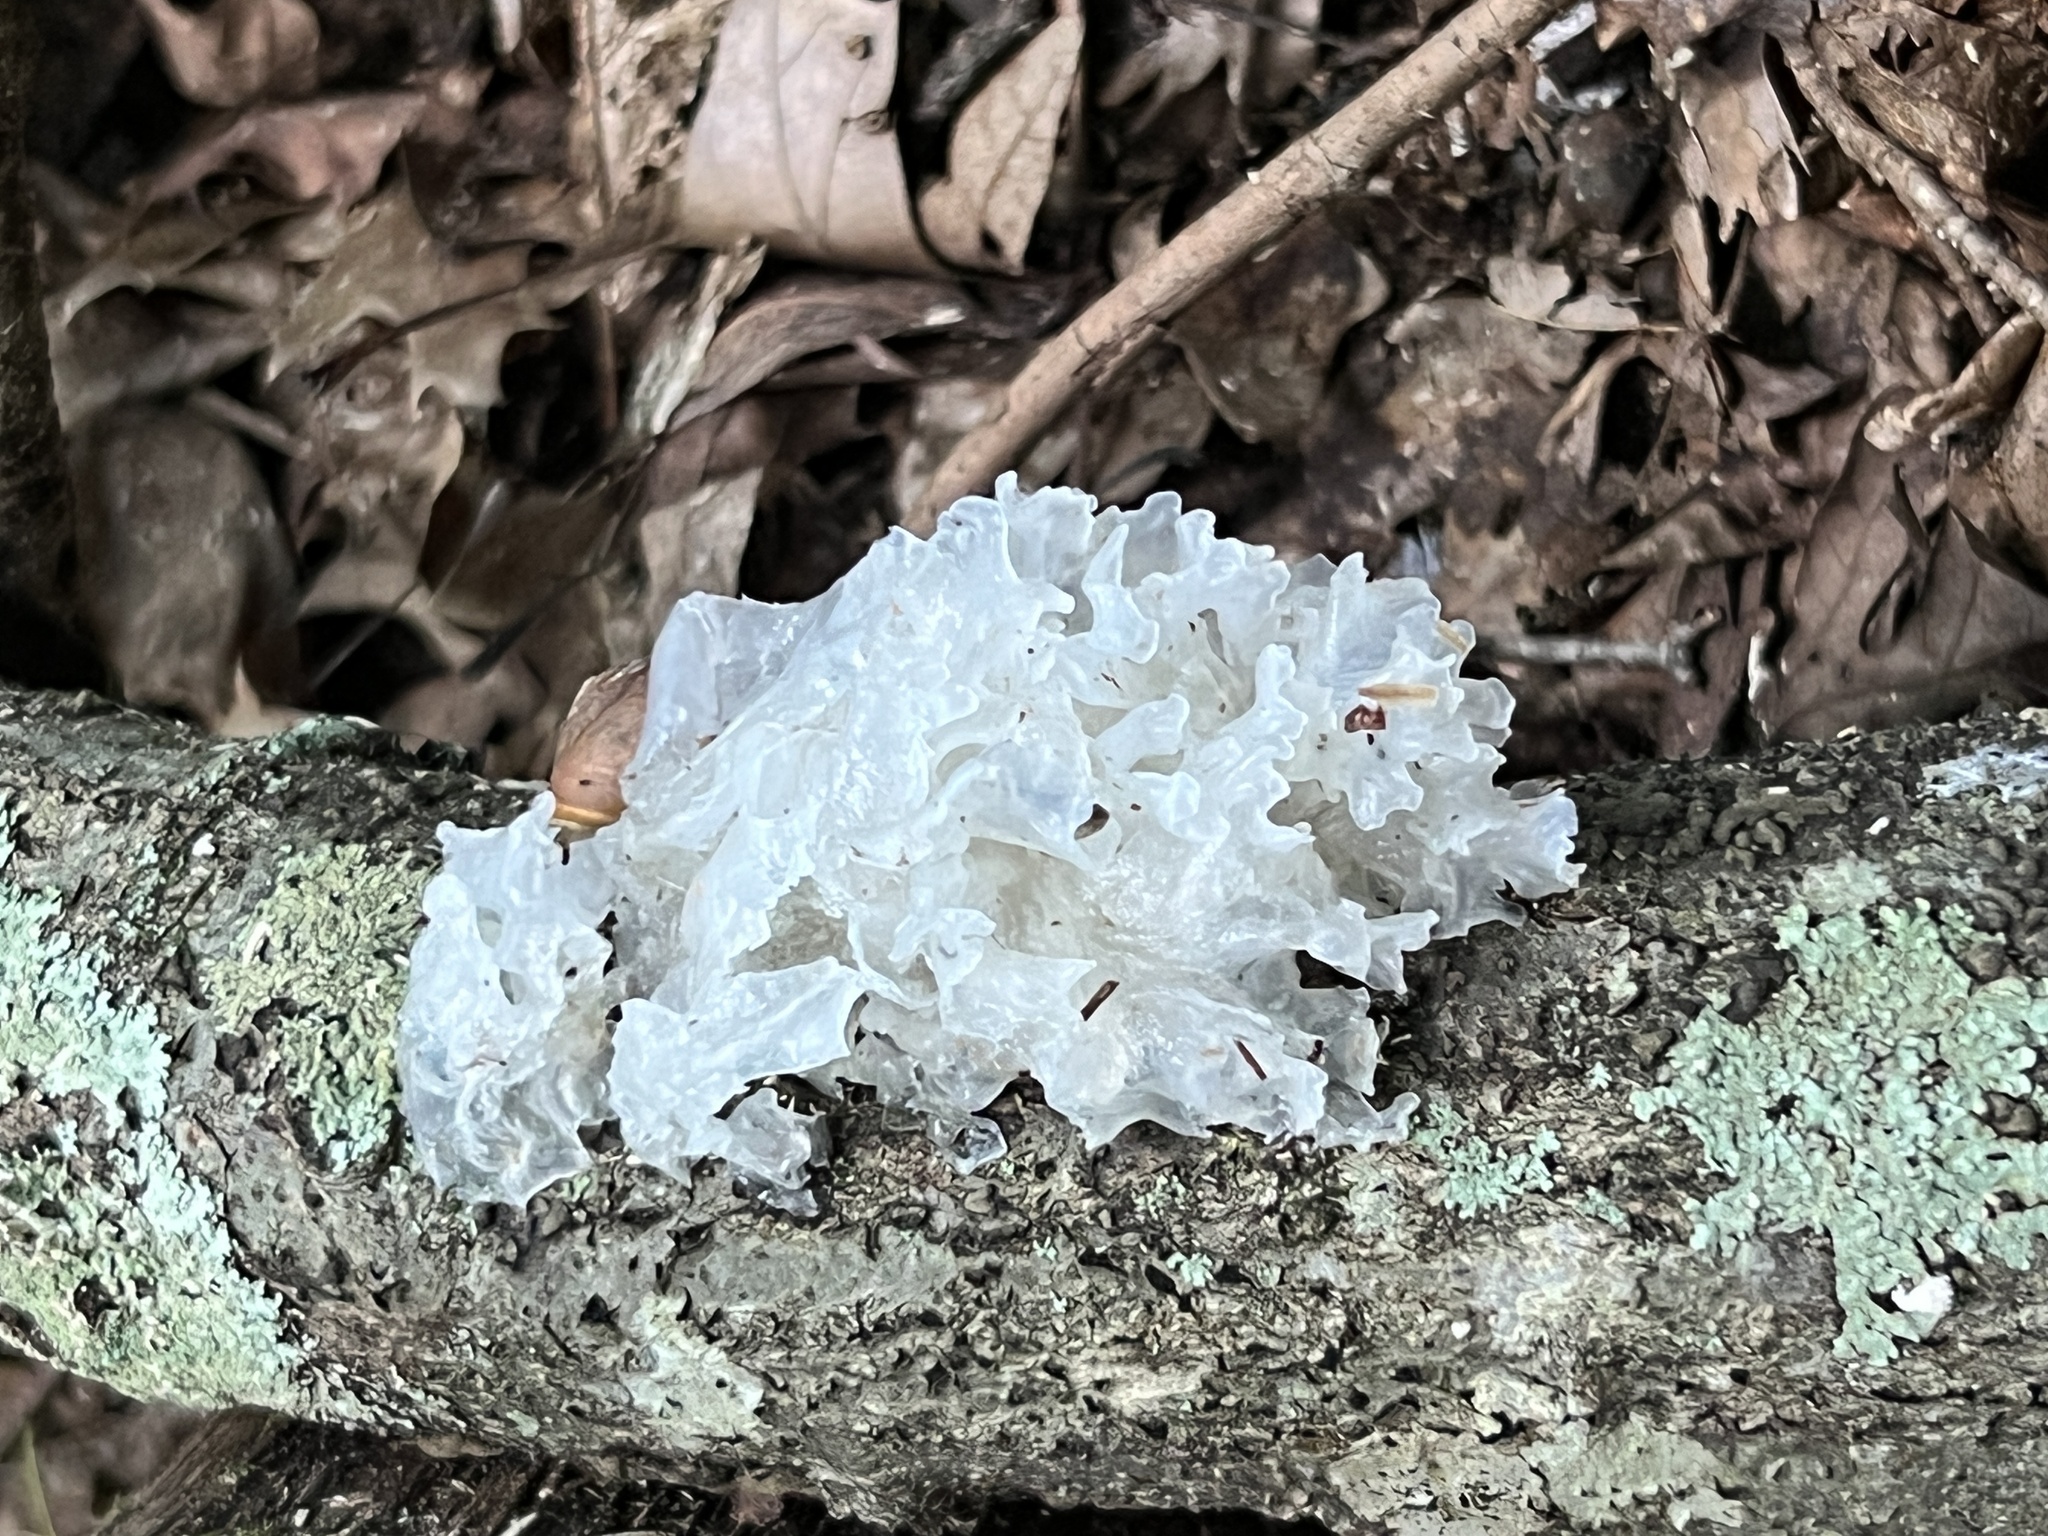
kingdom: Fungi
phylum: Basidiomycota
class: Tremellomycetes
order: Tremellales
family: Tremellaceae
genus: Tremella
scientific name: Tremella fuciformis
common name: Snow fungus
